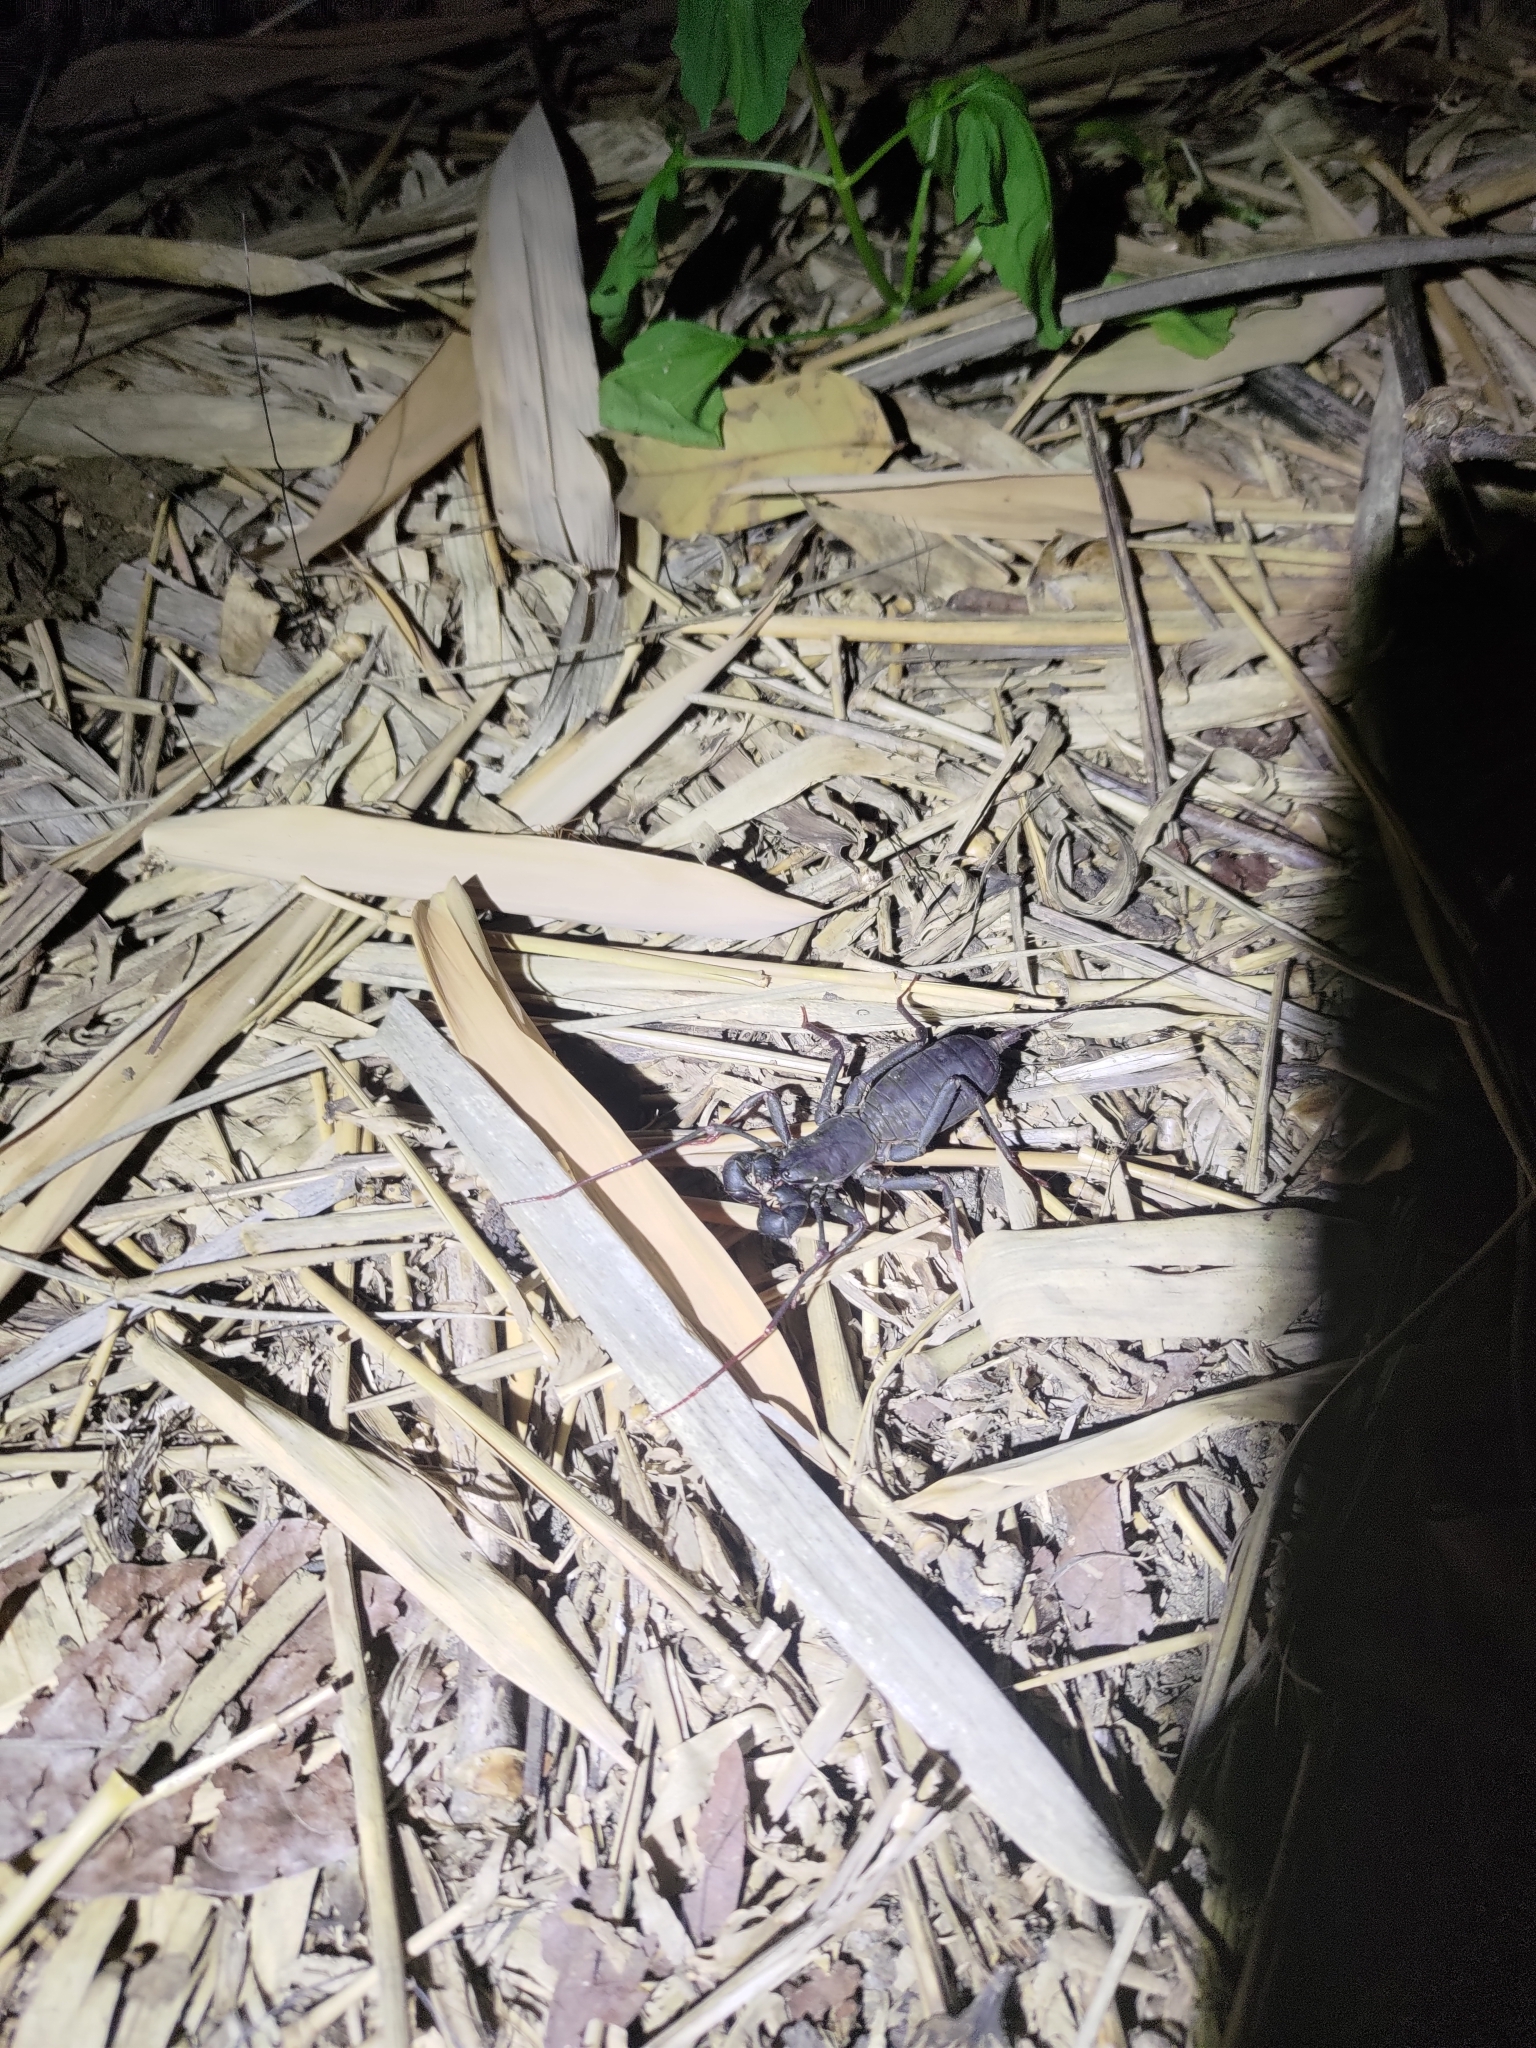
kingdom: Animalia
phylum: Arthropoda
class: Arachnida
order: Uropygi
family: Thelyphonidae
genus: Typopeltis
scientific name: Typopeltis crucifer
